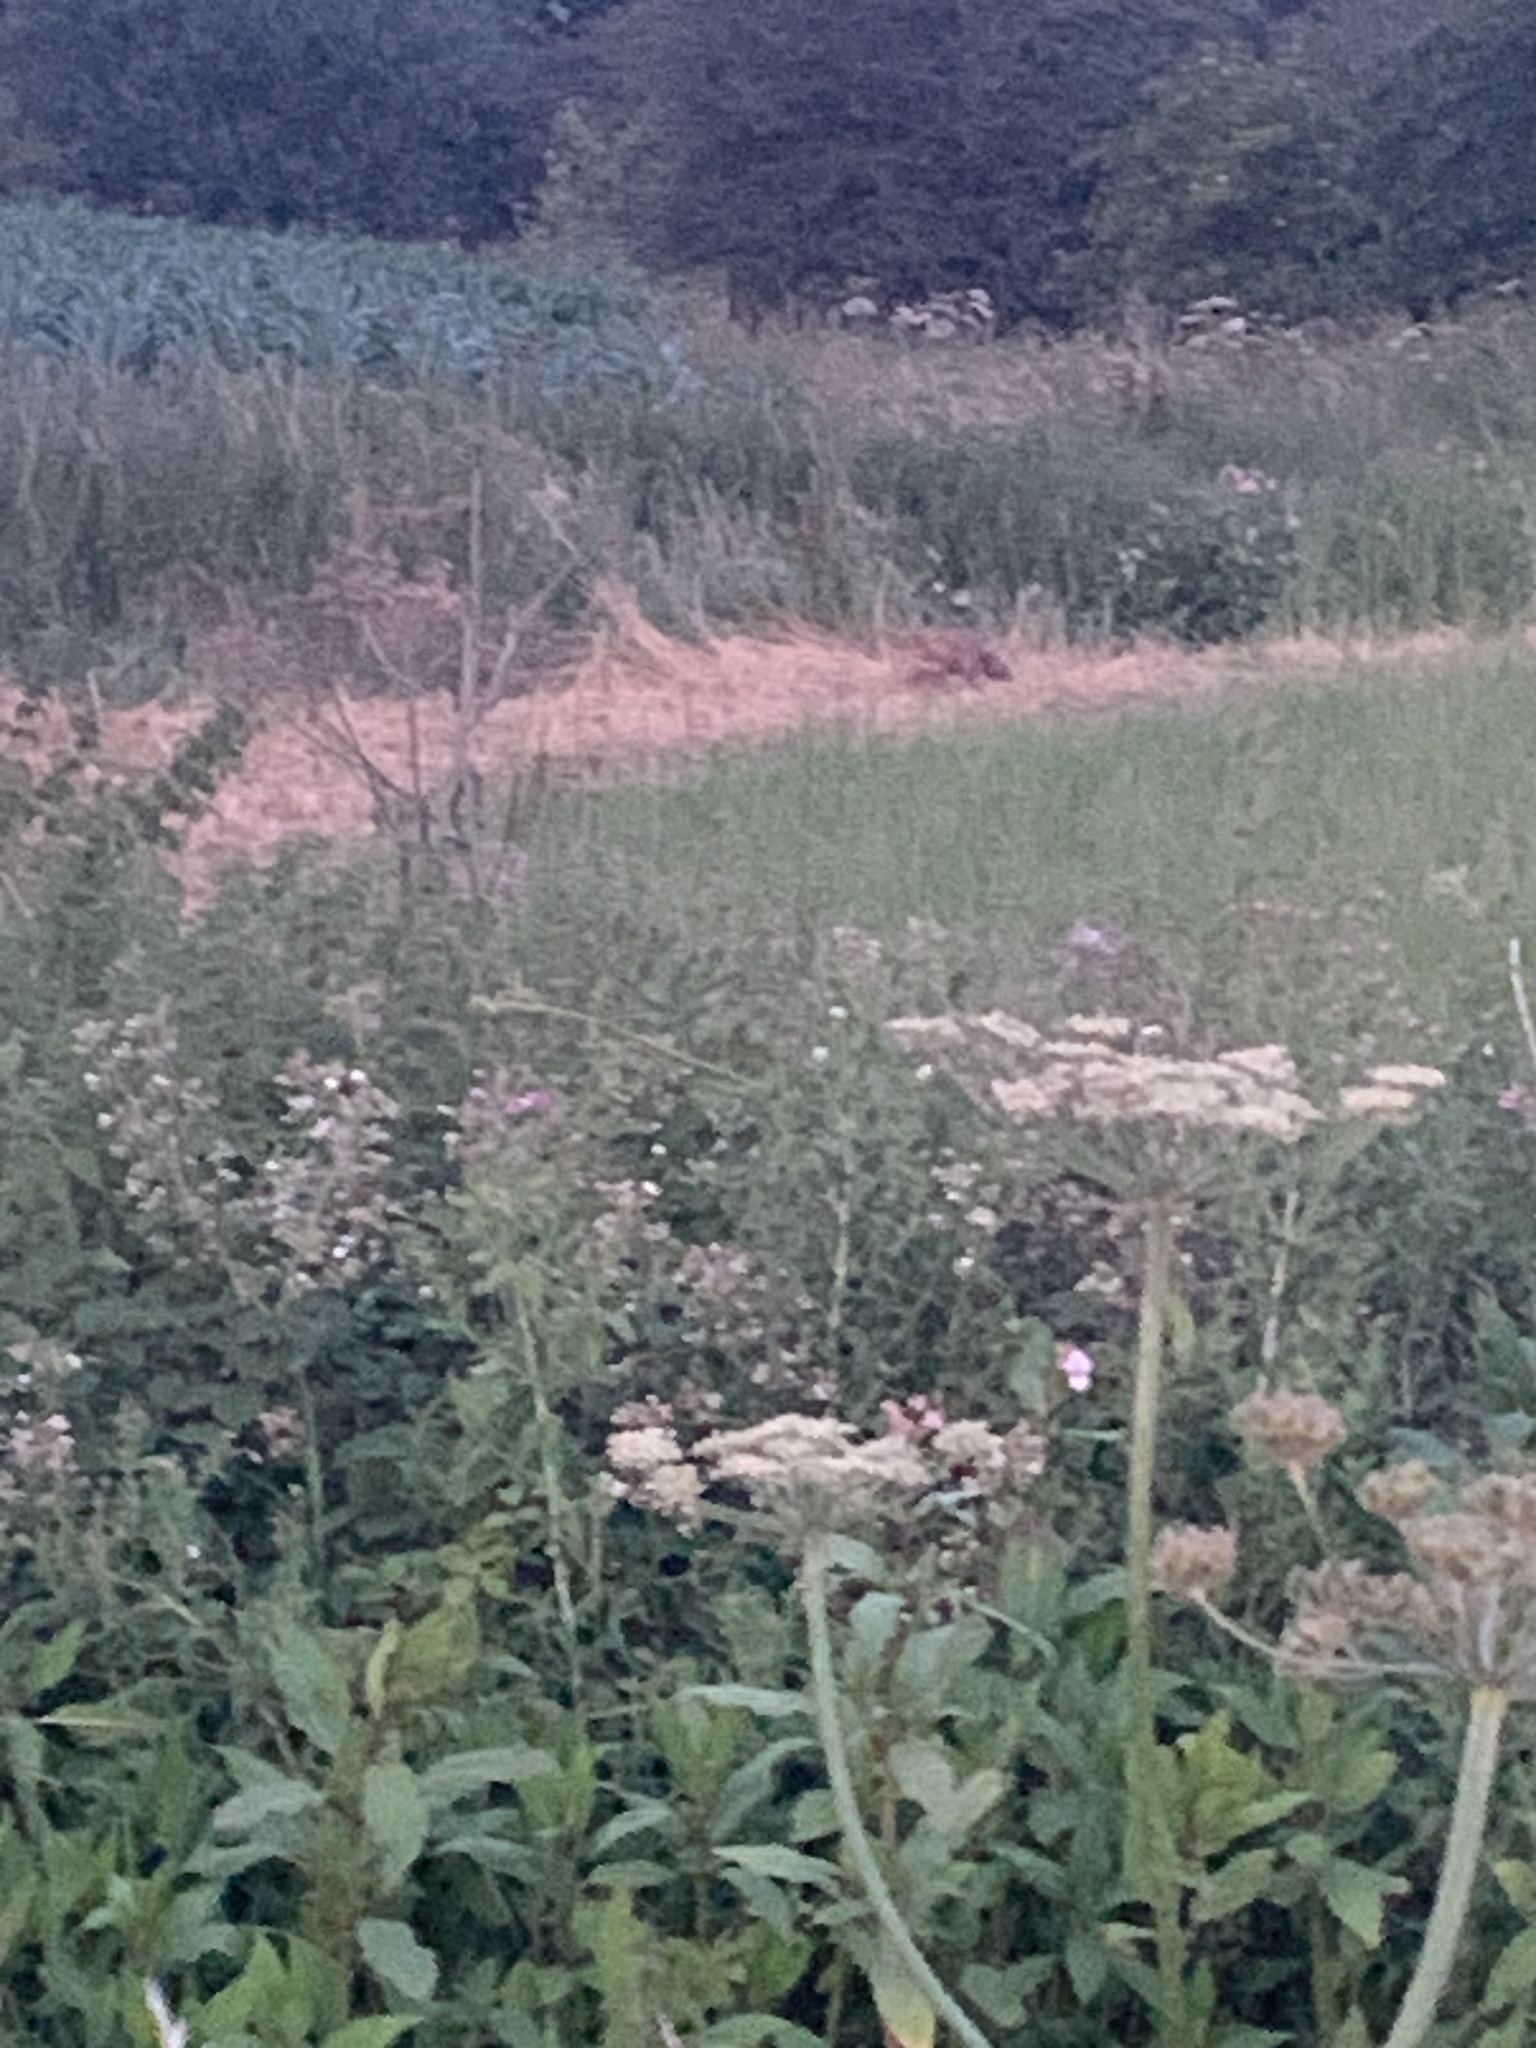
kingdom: Animalia
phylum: Chordata
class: Mammalia
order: Carnivora
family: Canidae
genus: Vulpes
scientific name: Vulpes vulpes
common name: Red fox
